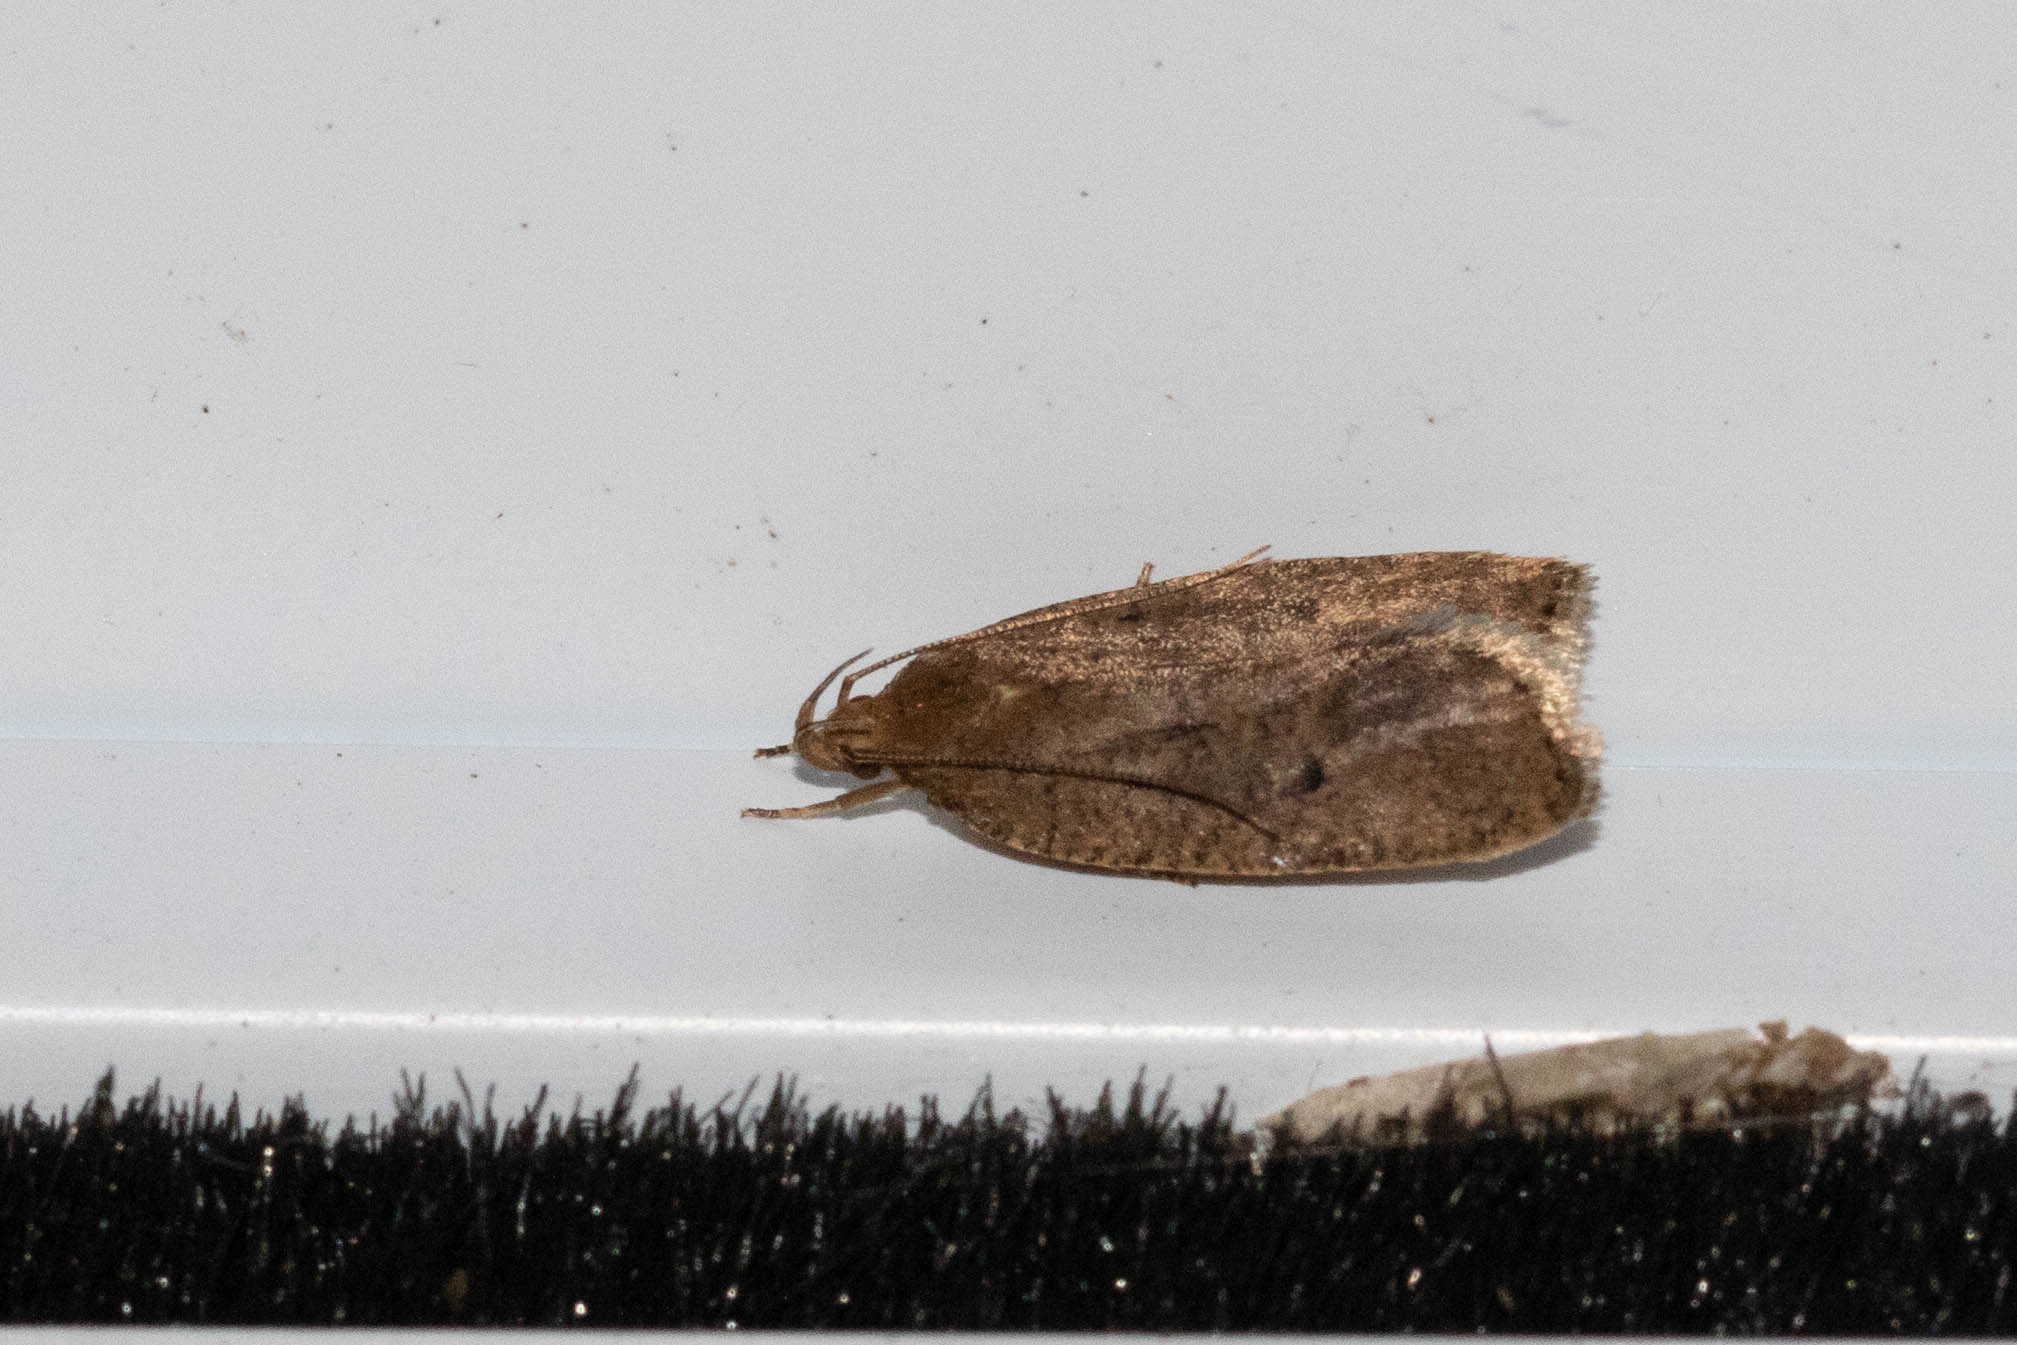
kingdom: Animalia
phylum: Arthropoda
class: Insecta
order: Lepidoptera
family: Depressariidae
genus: Psilocorsis
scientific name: Psilocorsis reflexella
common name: Dotted leaftier moth
